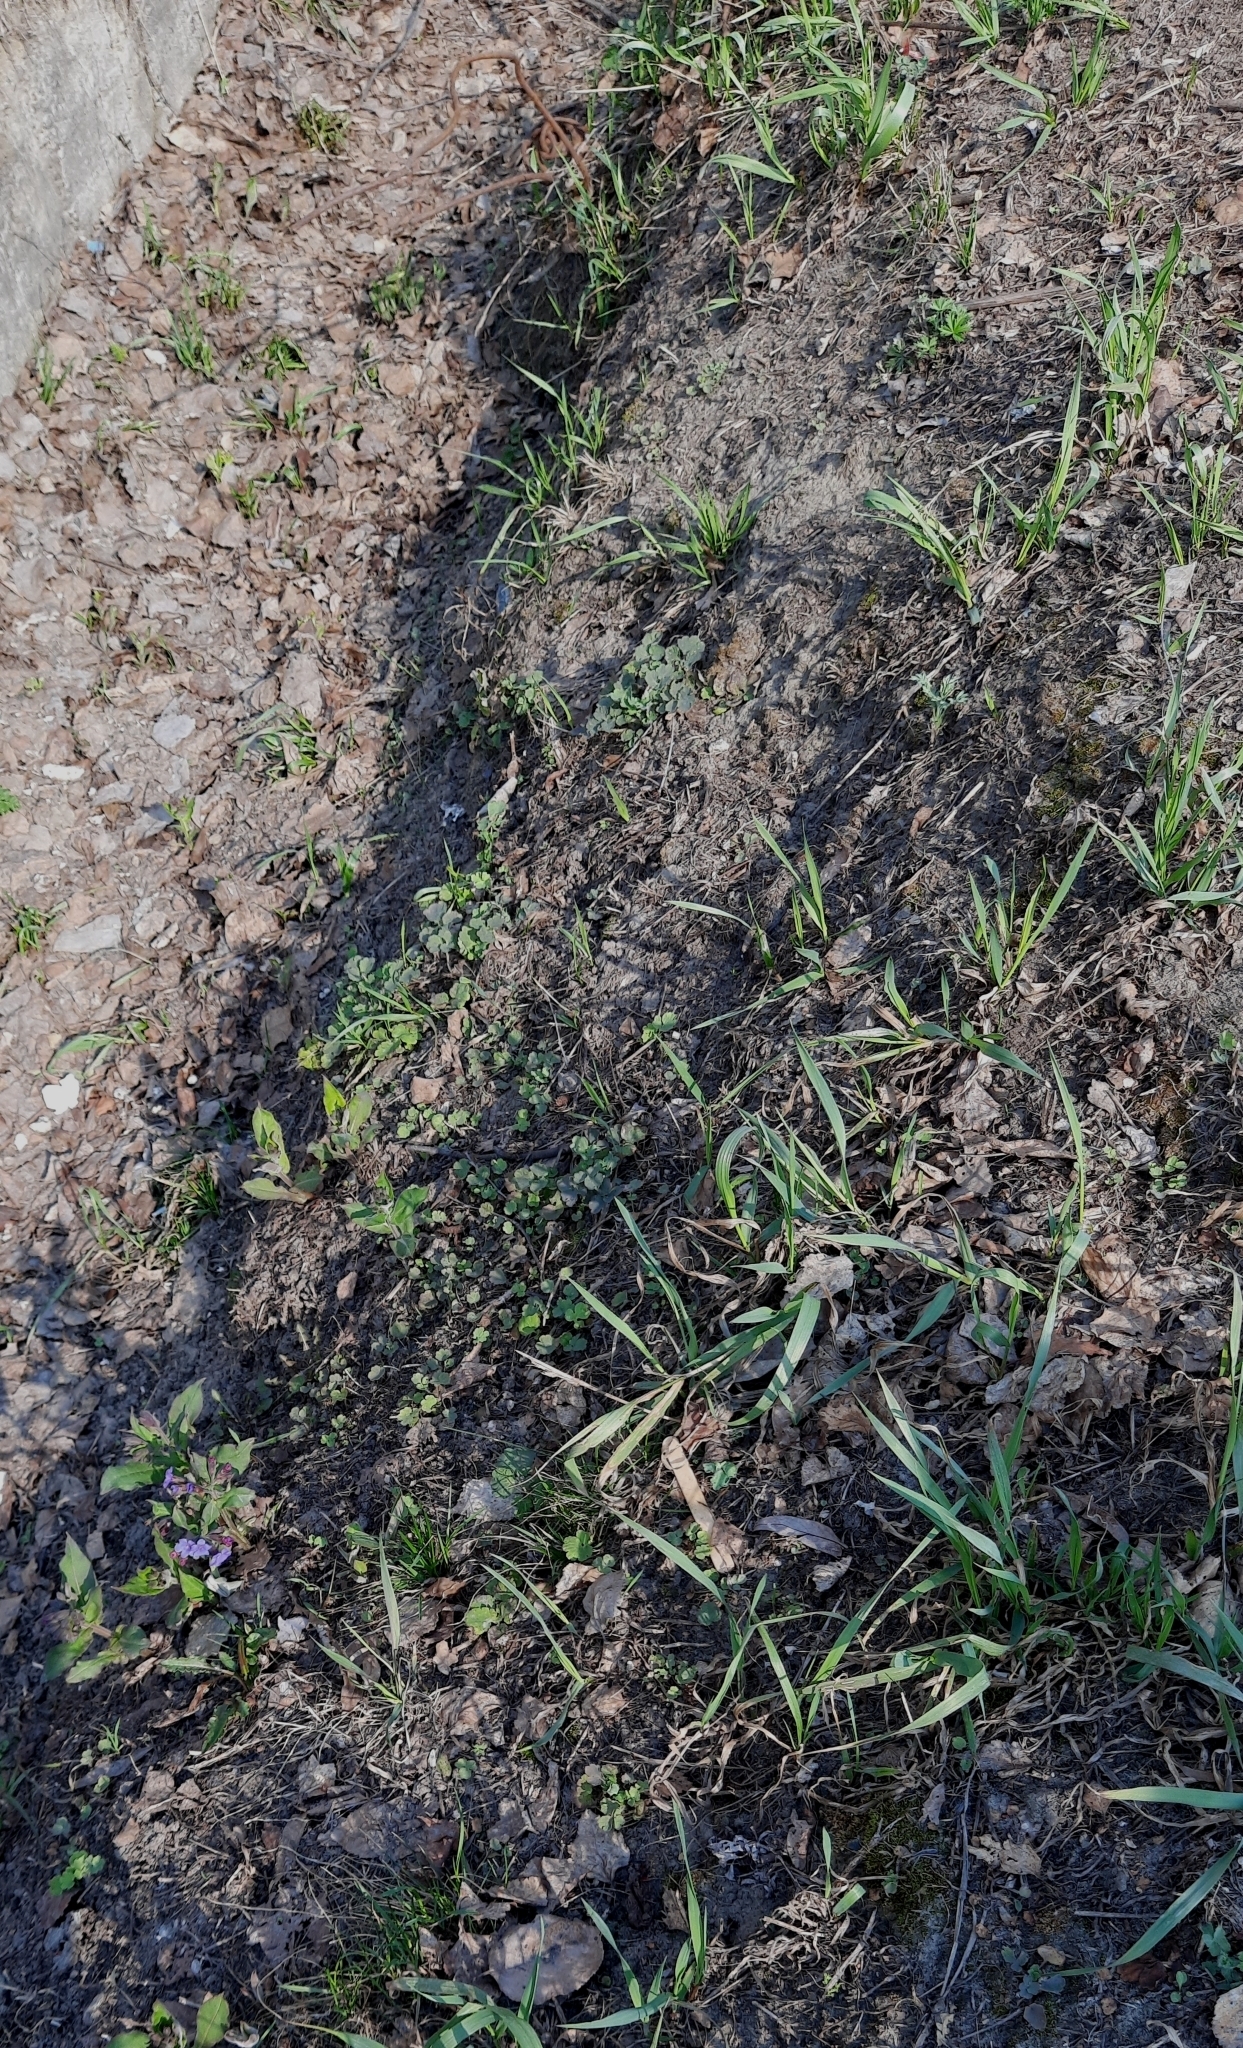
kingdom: Plantae
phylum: Tracheophyta
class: Magnoliopsida
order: Boraginales
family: Boraginaceae
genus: Pulmonaria
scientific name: Pulmonaria mollis
